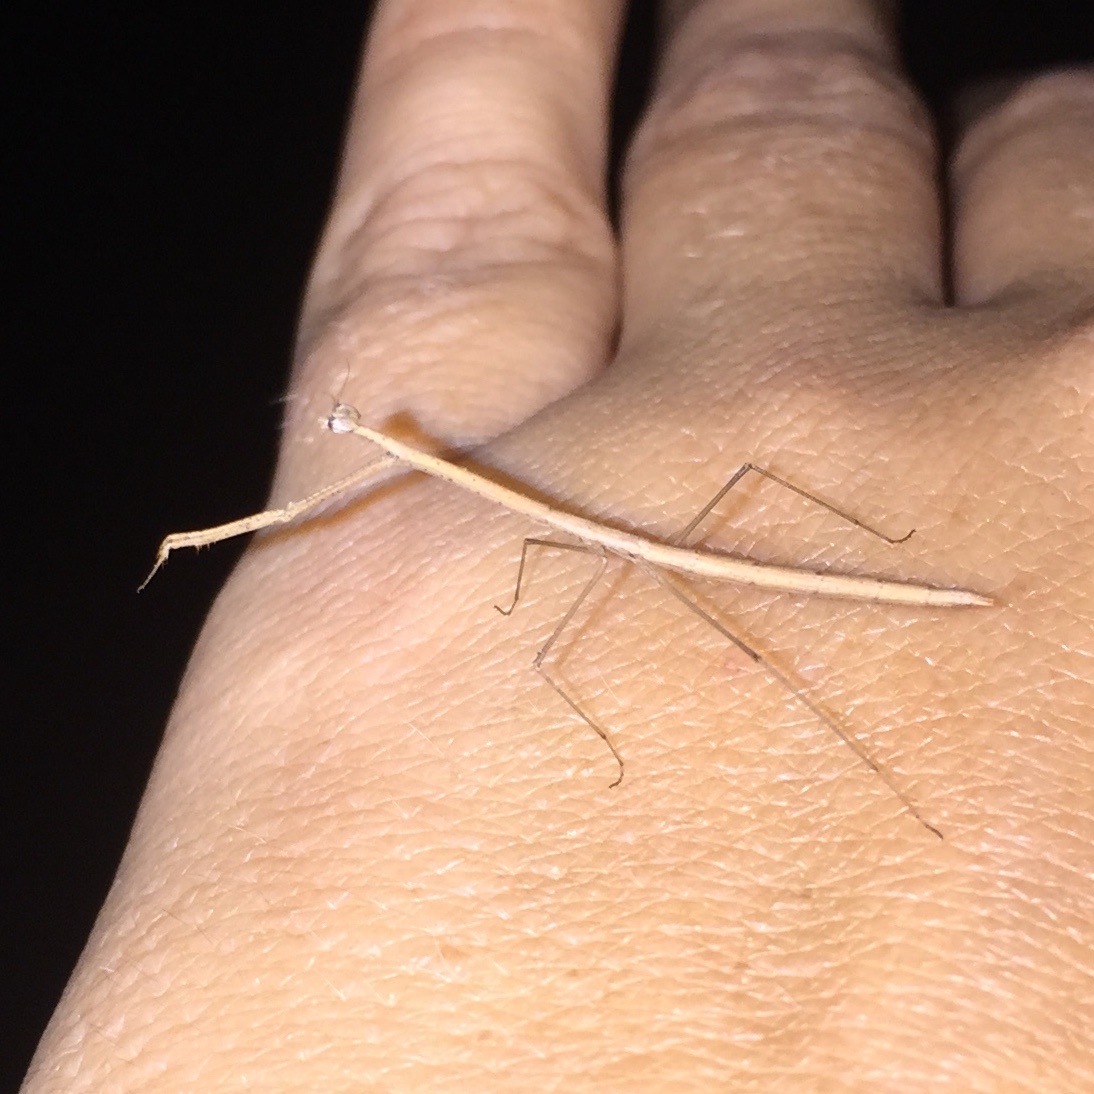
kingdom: Animalia
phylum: Arthropoda
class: Insecta
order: Mantodea
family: Thespidae
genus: Thesprotia
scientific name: Thesprotia graminis
